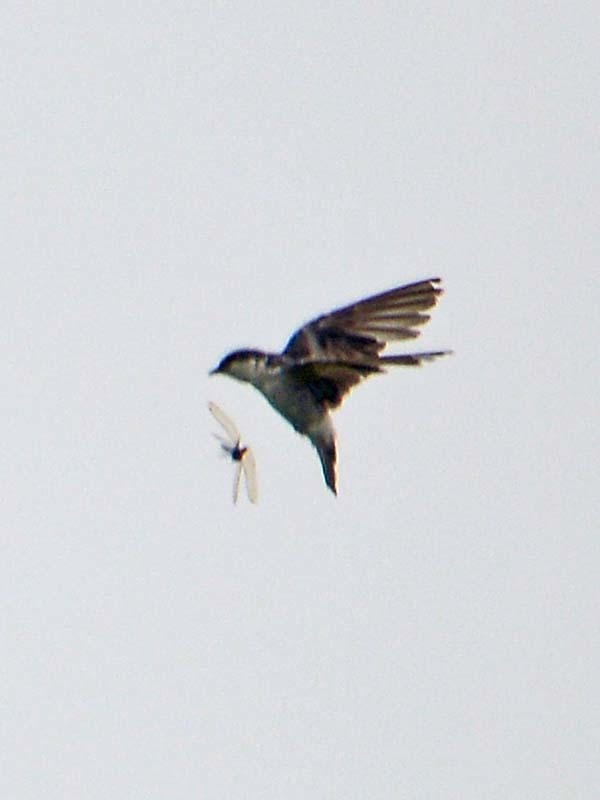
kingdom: Animalia
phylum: Chordata
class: Aves
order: Passeriformes
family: Hirundinidae
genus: Tachycineta
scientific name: Tachycineta albilinea
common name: Mangrove swallow
